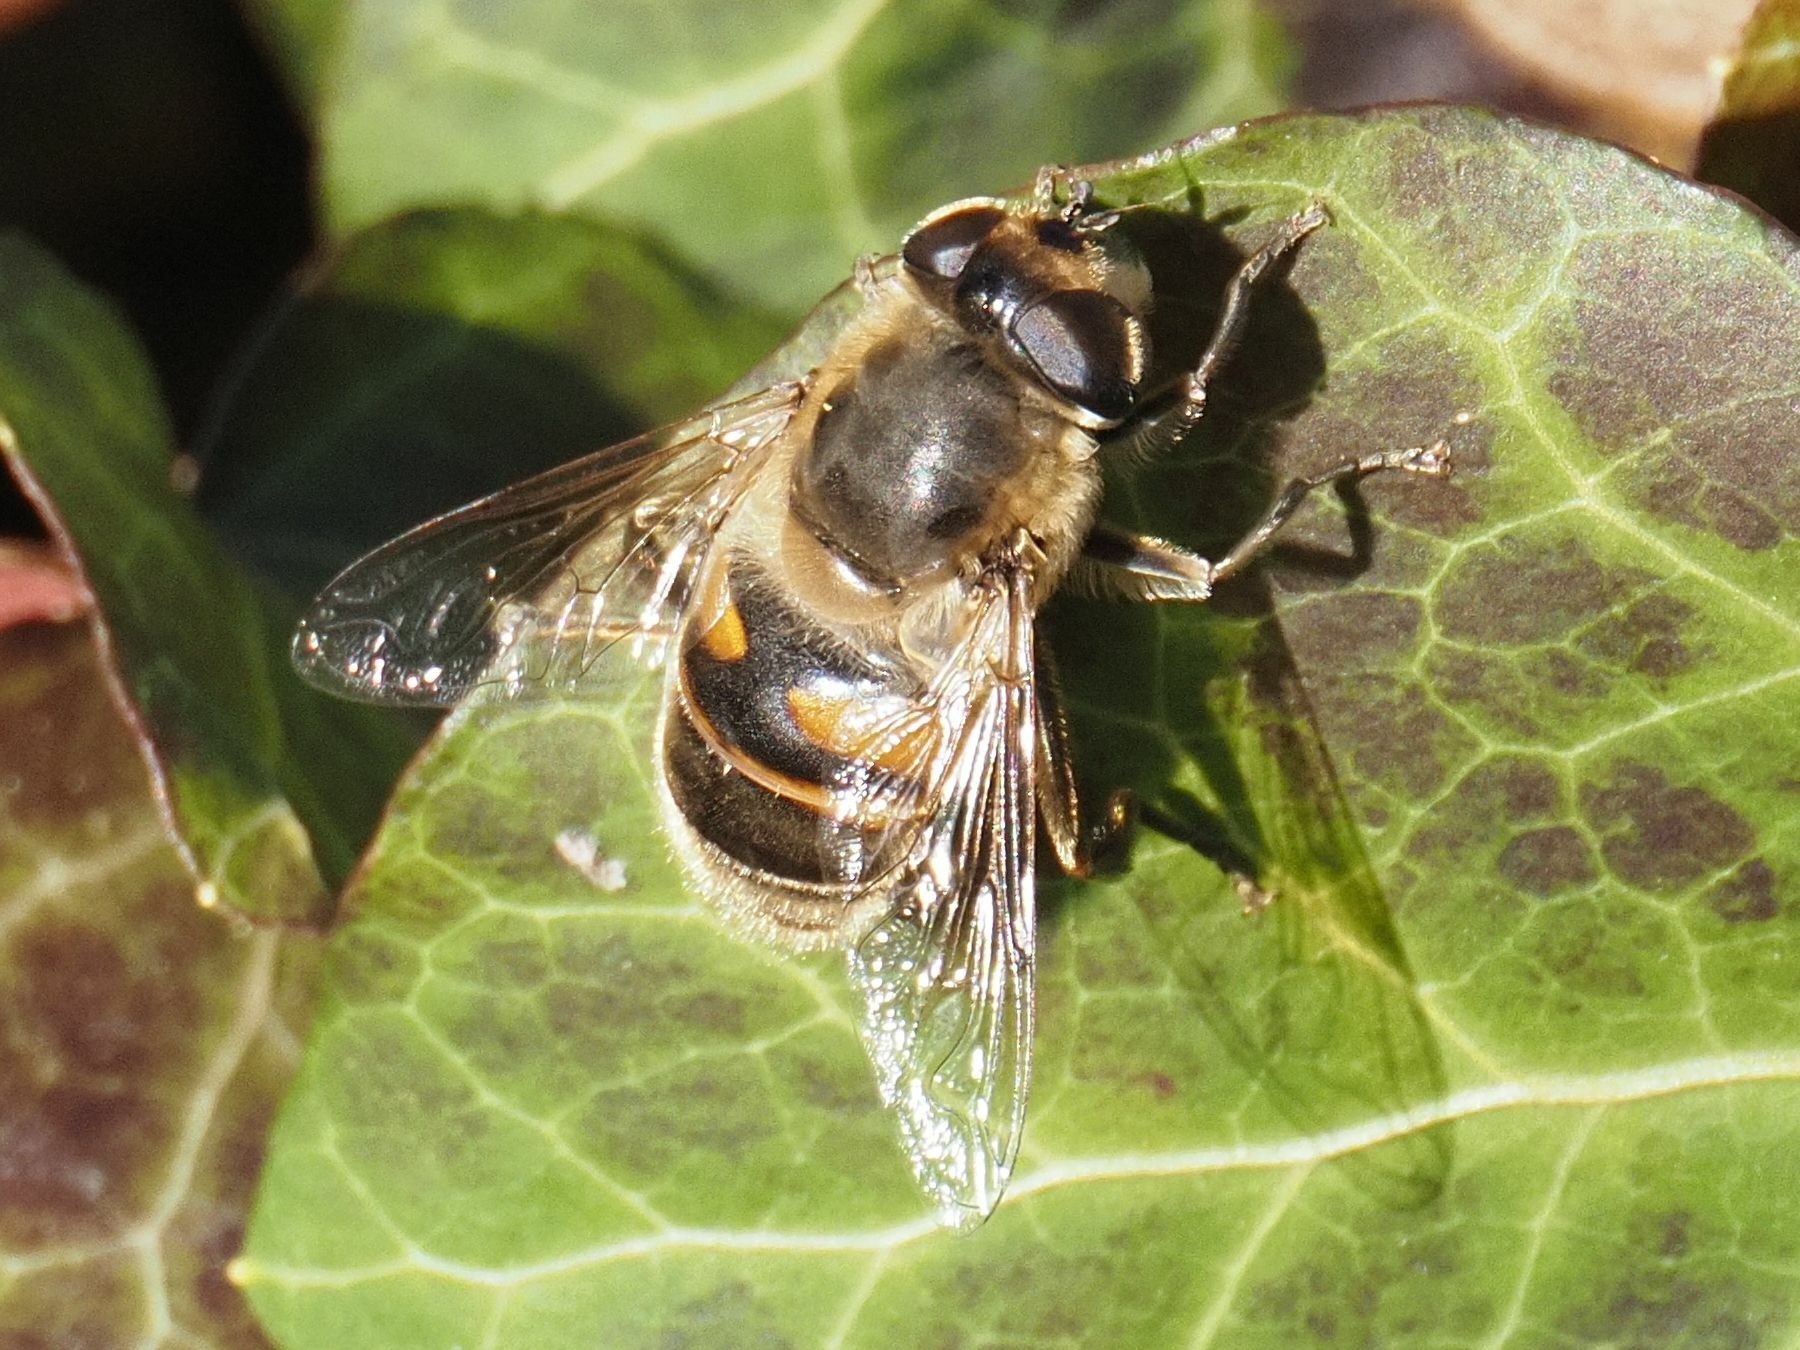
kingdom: Animalia
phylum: Arthropoda
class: Insecta
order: Diptera
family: Syrphidae
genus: Eristalis
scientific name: Eristalis tenax
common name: Drone fly
